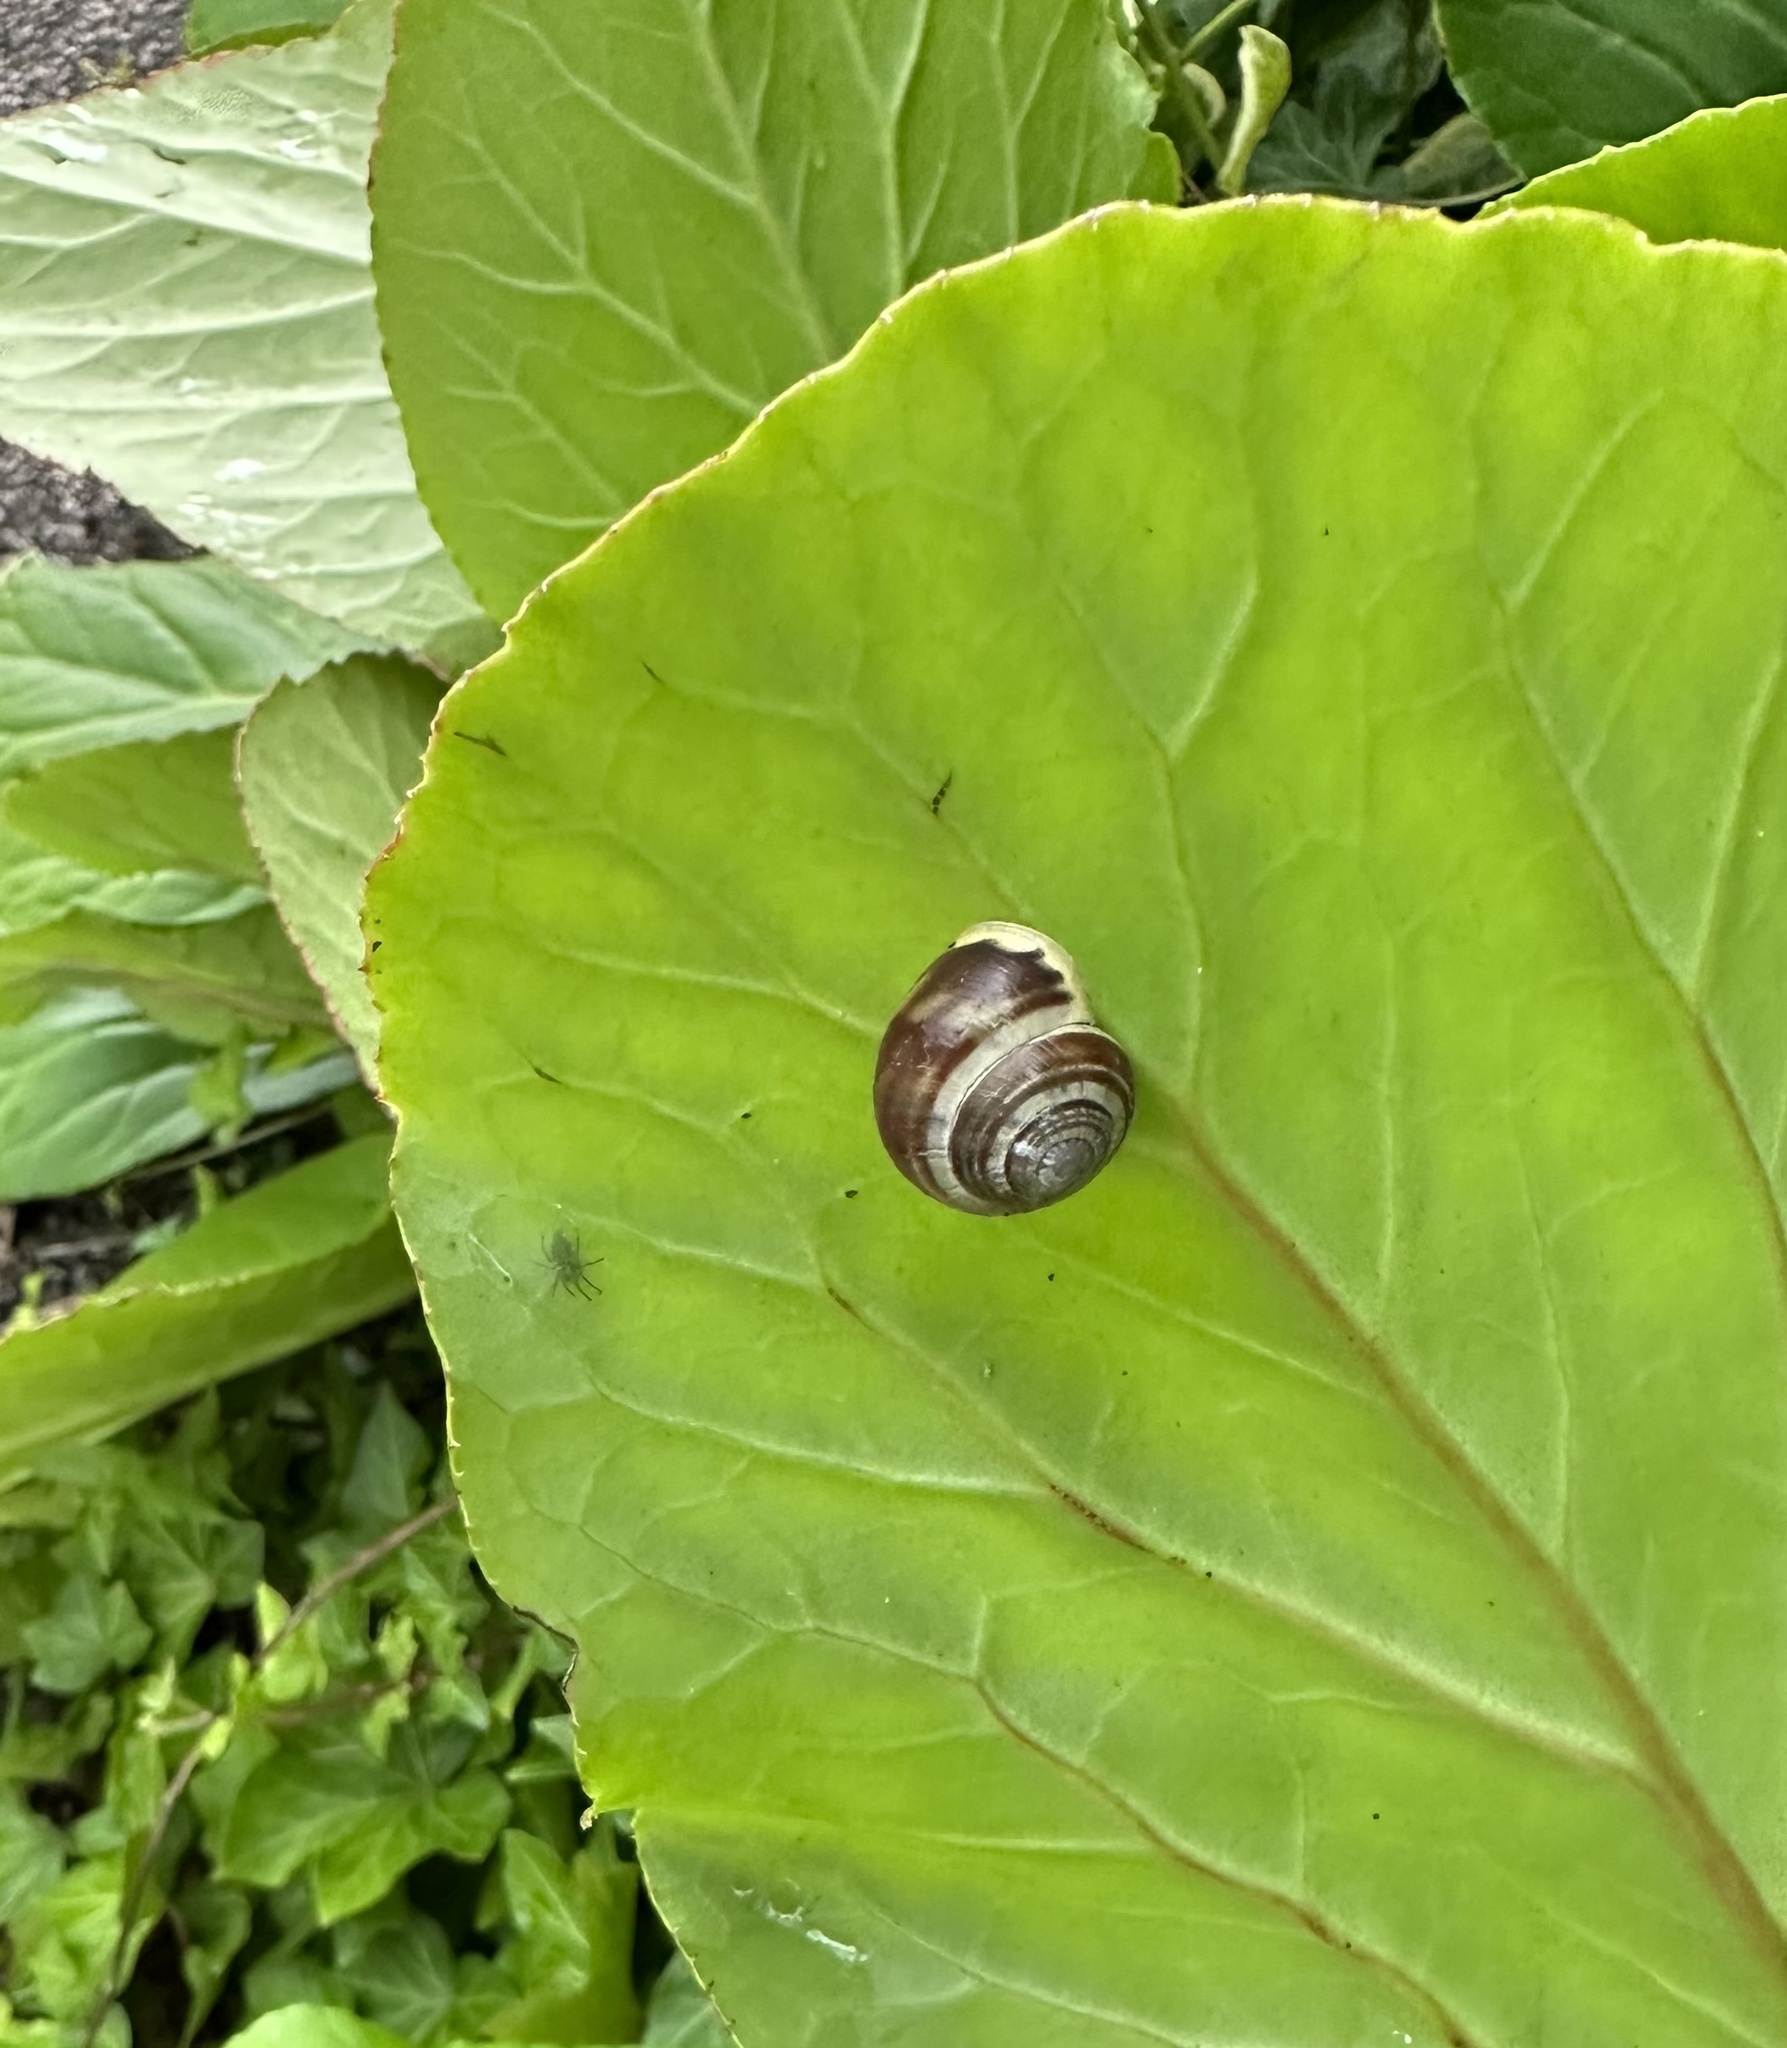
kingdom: Animalia
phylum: Mollusca
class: Gastropoda
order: Stylommatophora
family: Helicidae
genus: Cepaea
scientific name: Cepaea hortensis
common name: White-lip gardensnail
